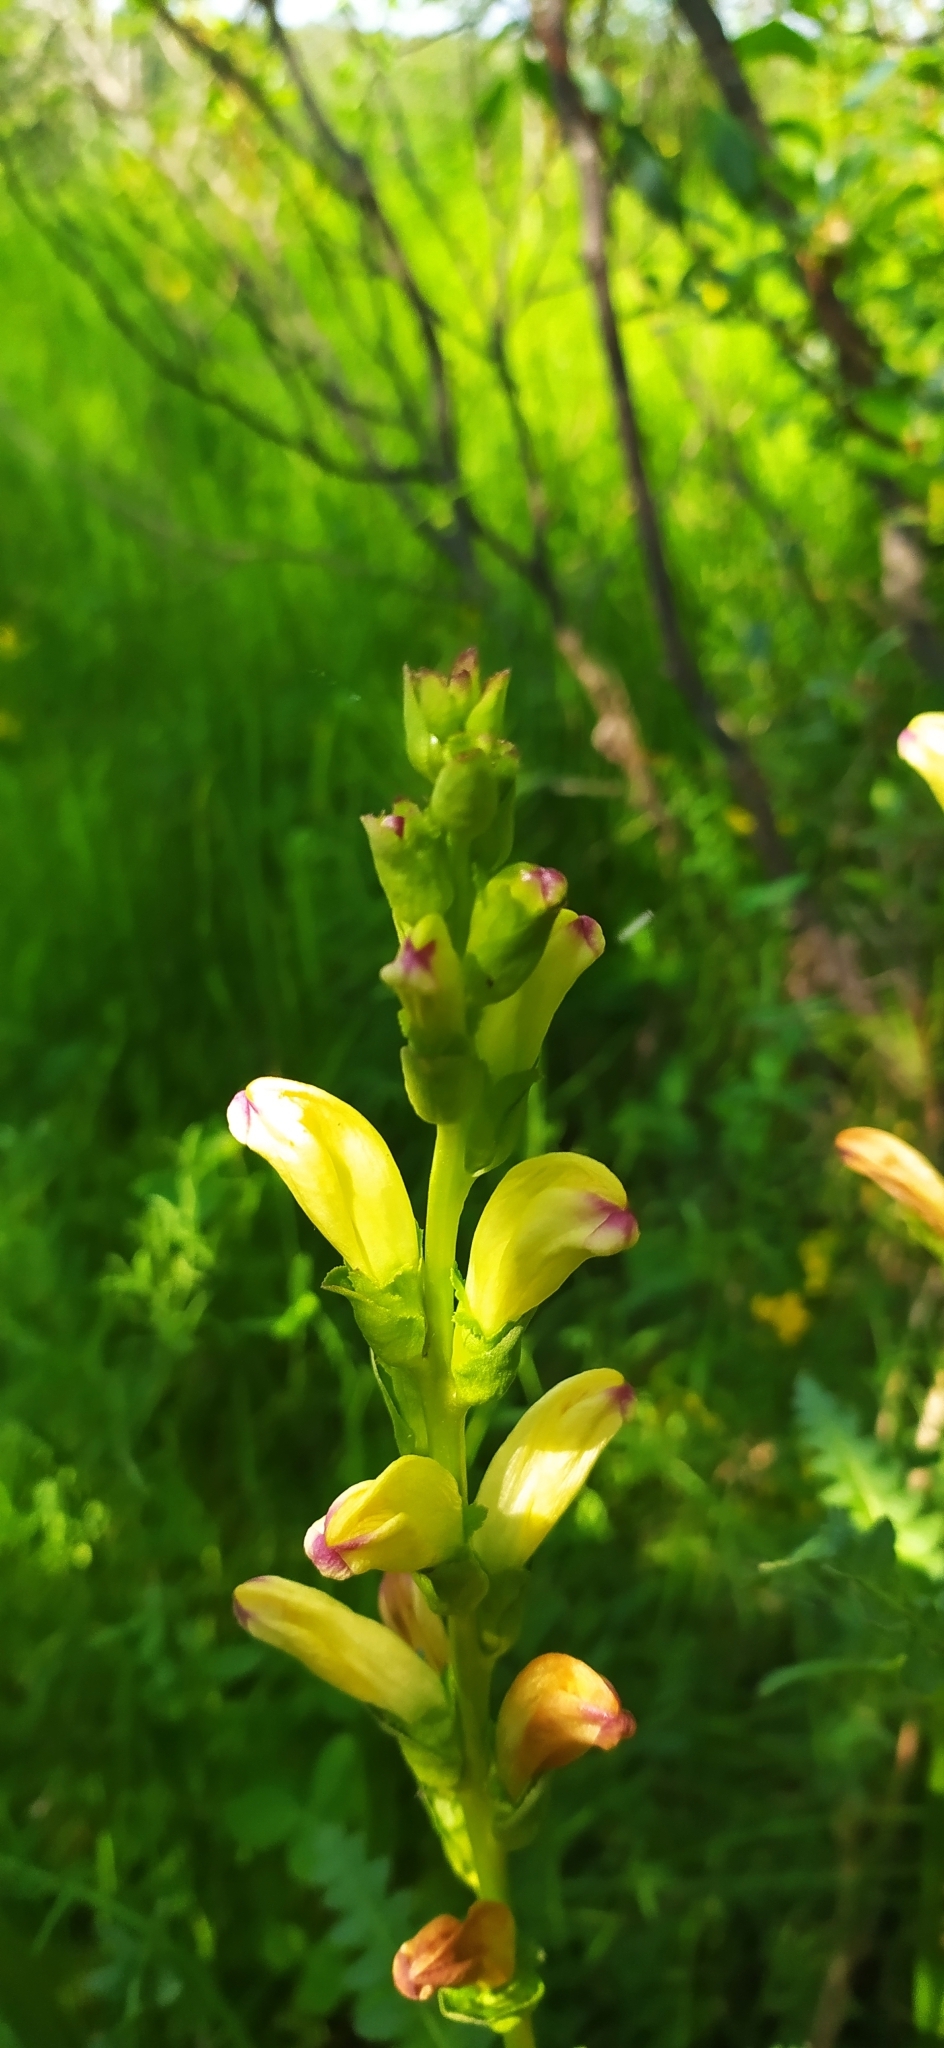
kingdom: Plantae
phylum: Tracheophyta
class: Magnoliopsida
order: Lamiales
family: Orobanchaceae
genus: Pedicularis
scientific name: Pedicularis sceptrum-carolinum
